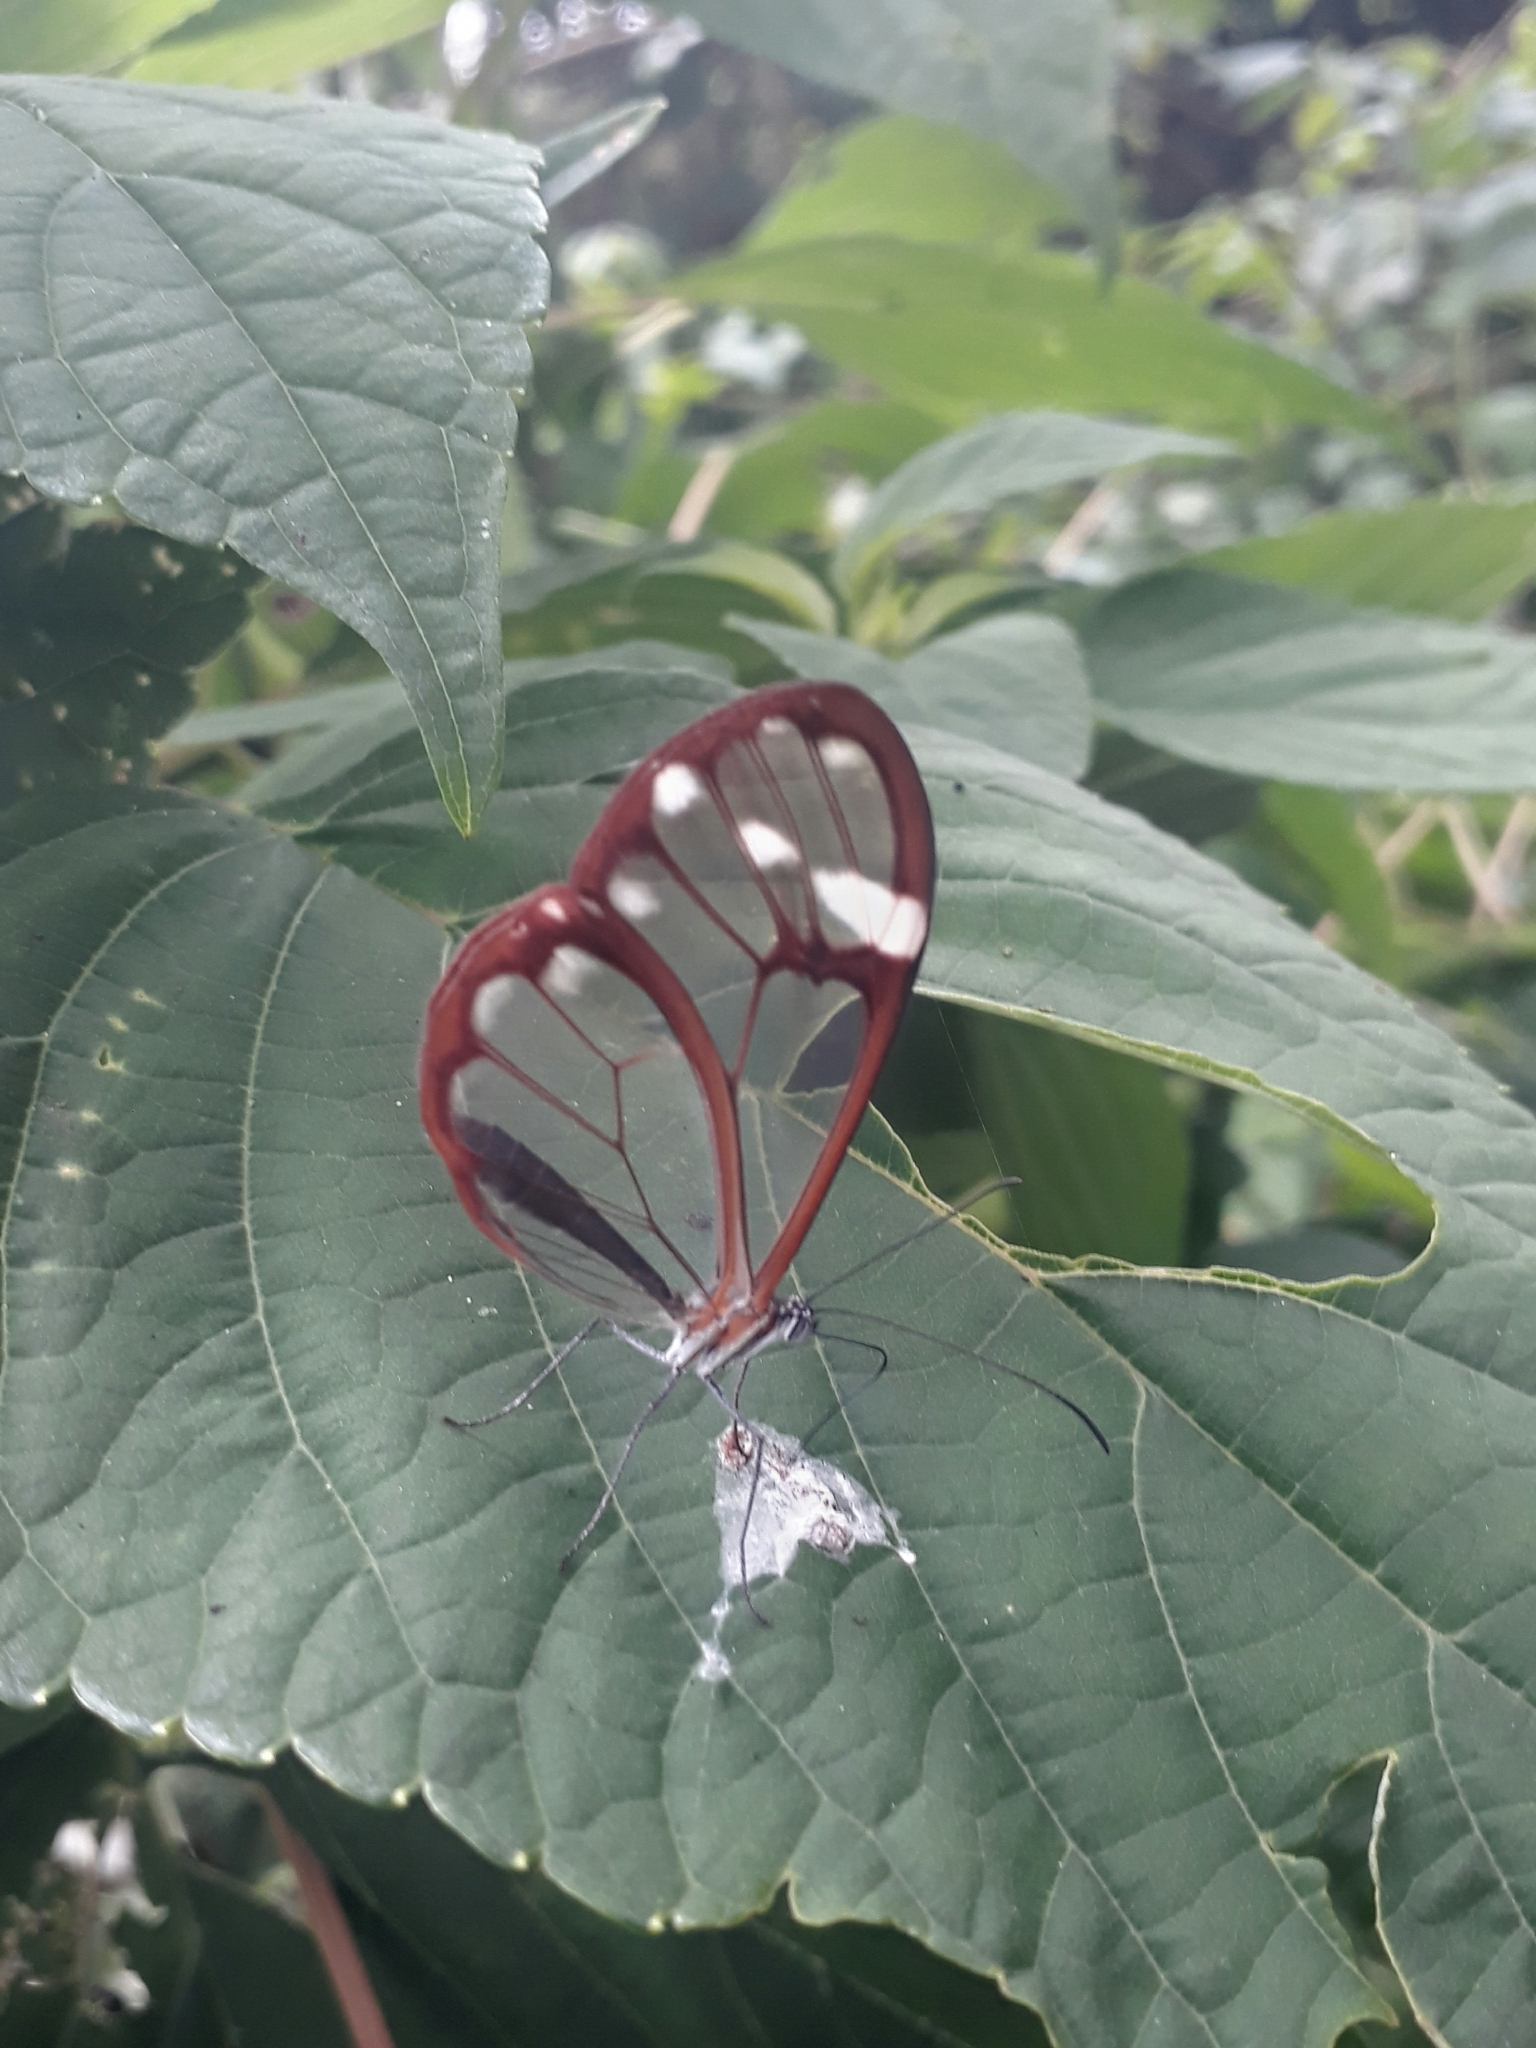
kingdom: Animalia
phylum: Arthropoda
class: Insecta
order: Lepidoptera
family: Nymphalidae
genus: Greta
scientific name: Greta annette
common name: White-spotted clearwing
